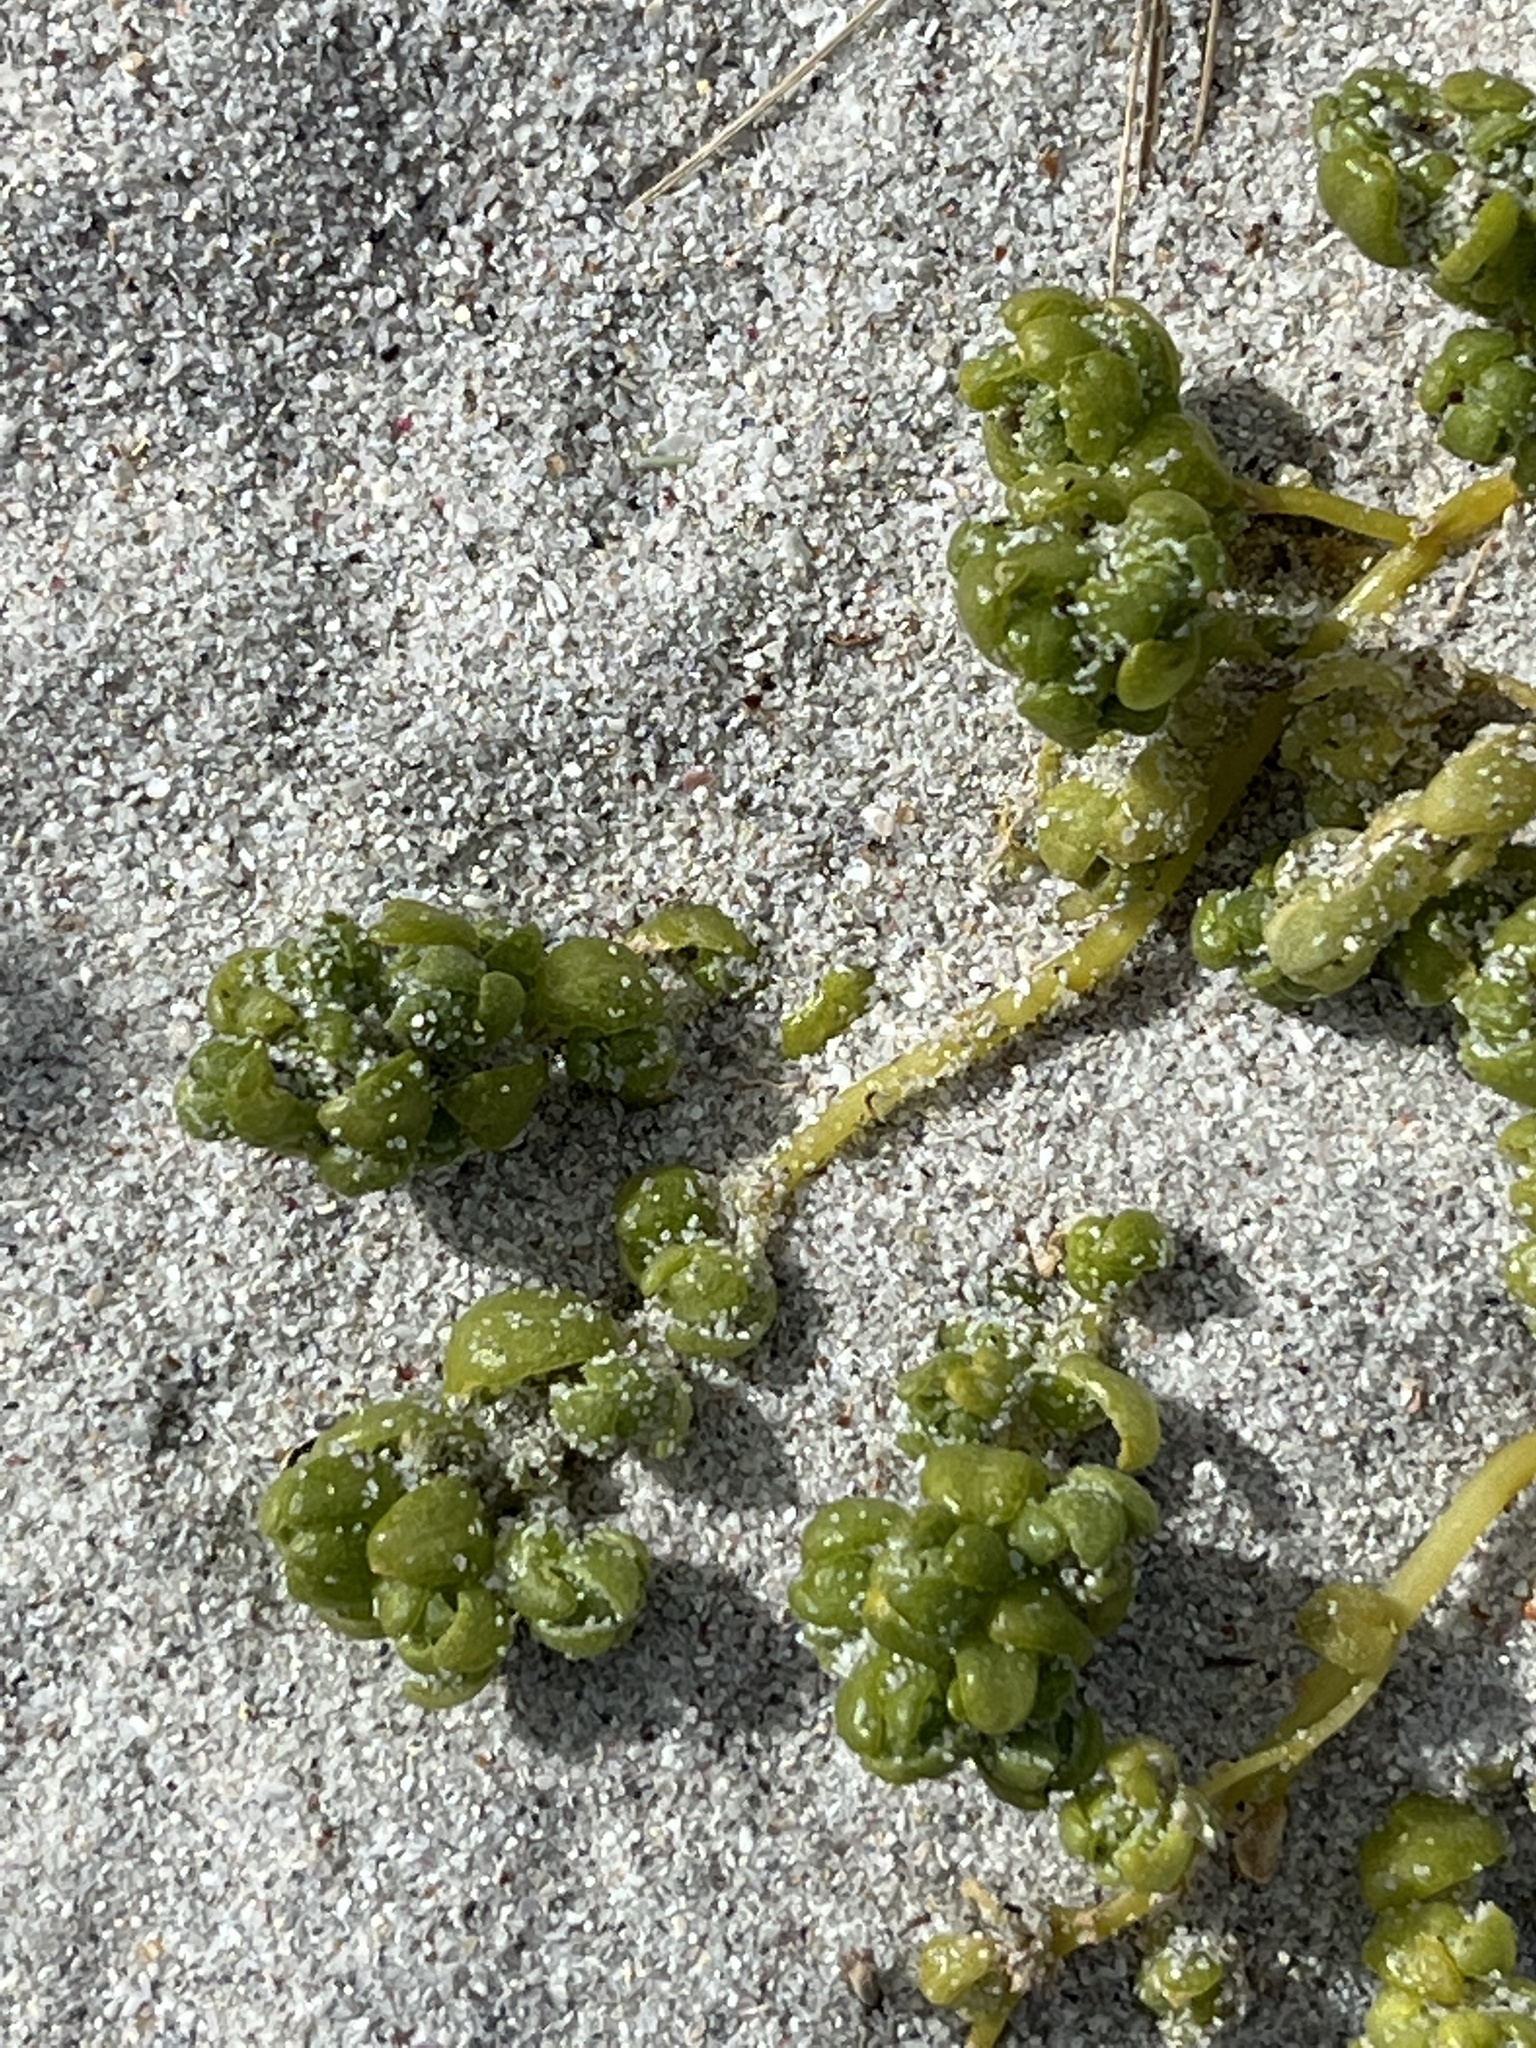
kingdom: Plantae
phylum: Tracheophyta
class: Magnoliopsida
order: Caryophyllales
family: Amaranthaceae
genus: Atriplex
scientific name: Atriplex billardierei
